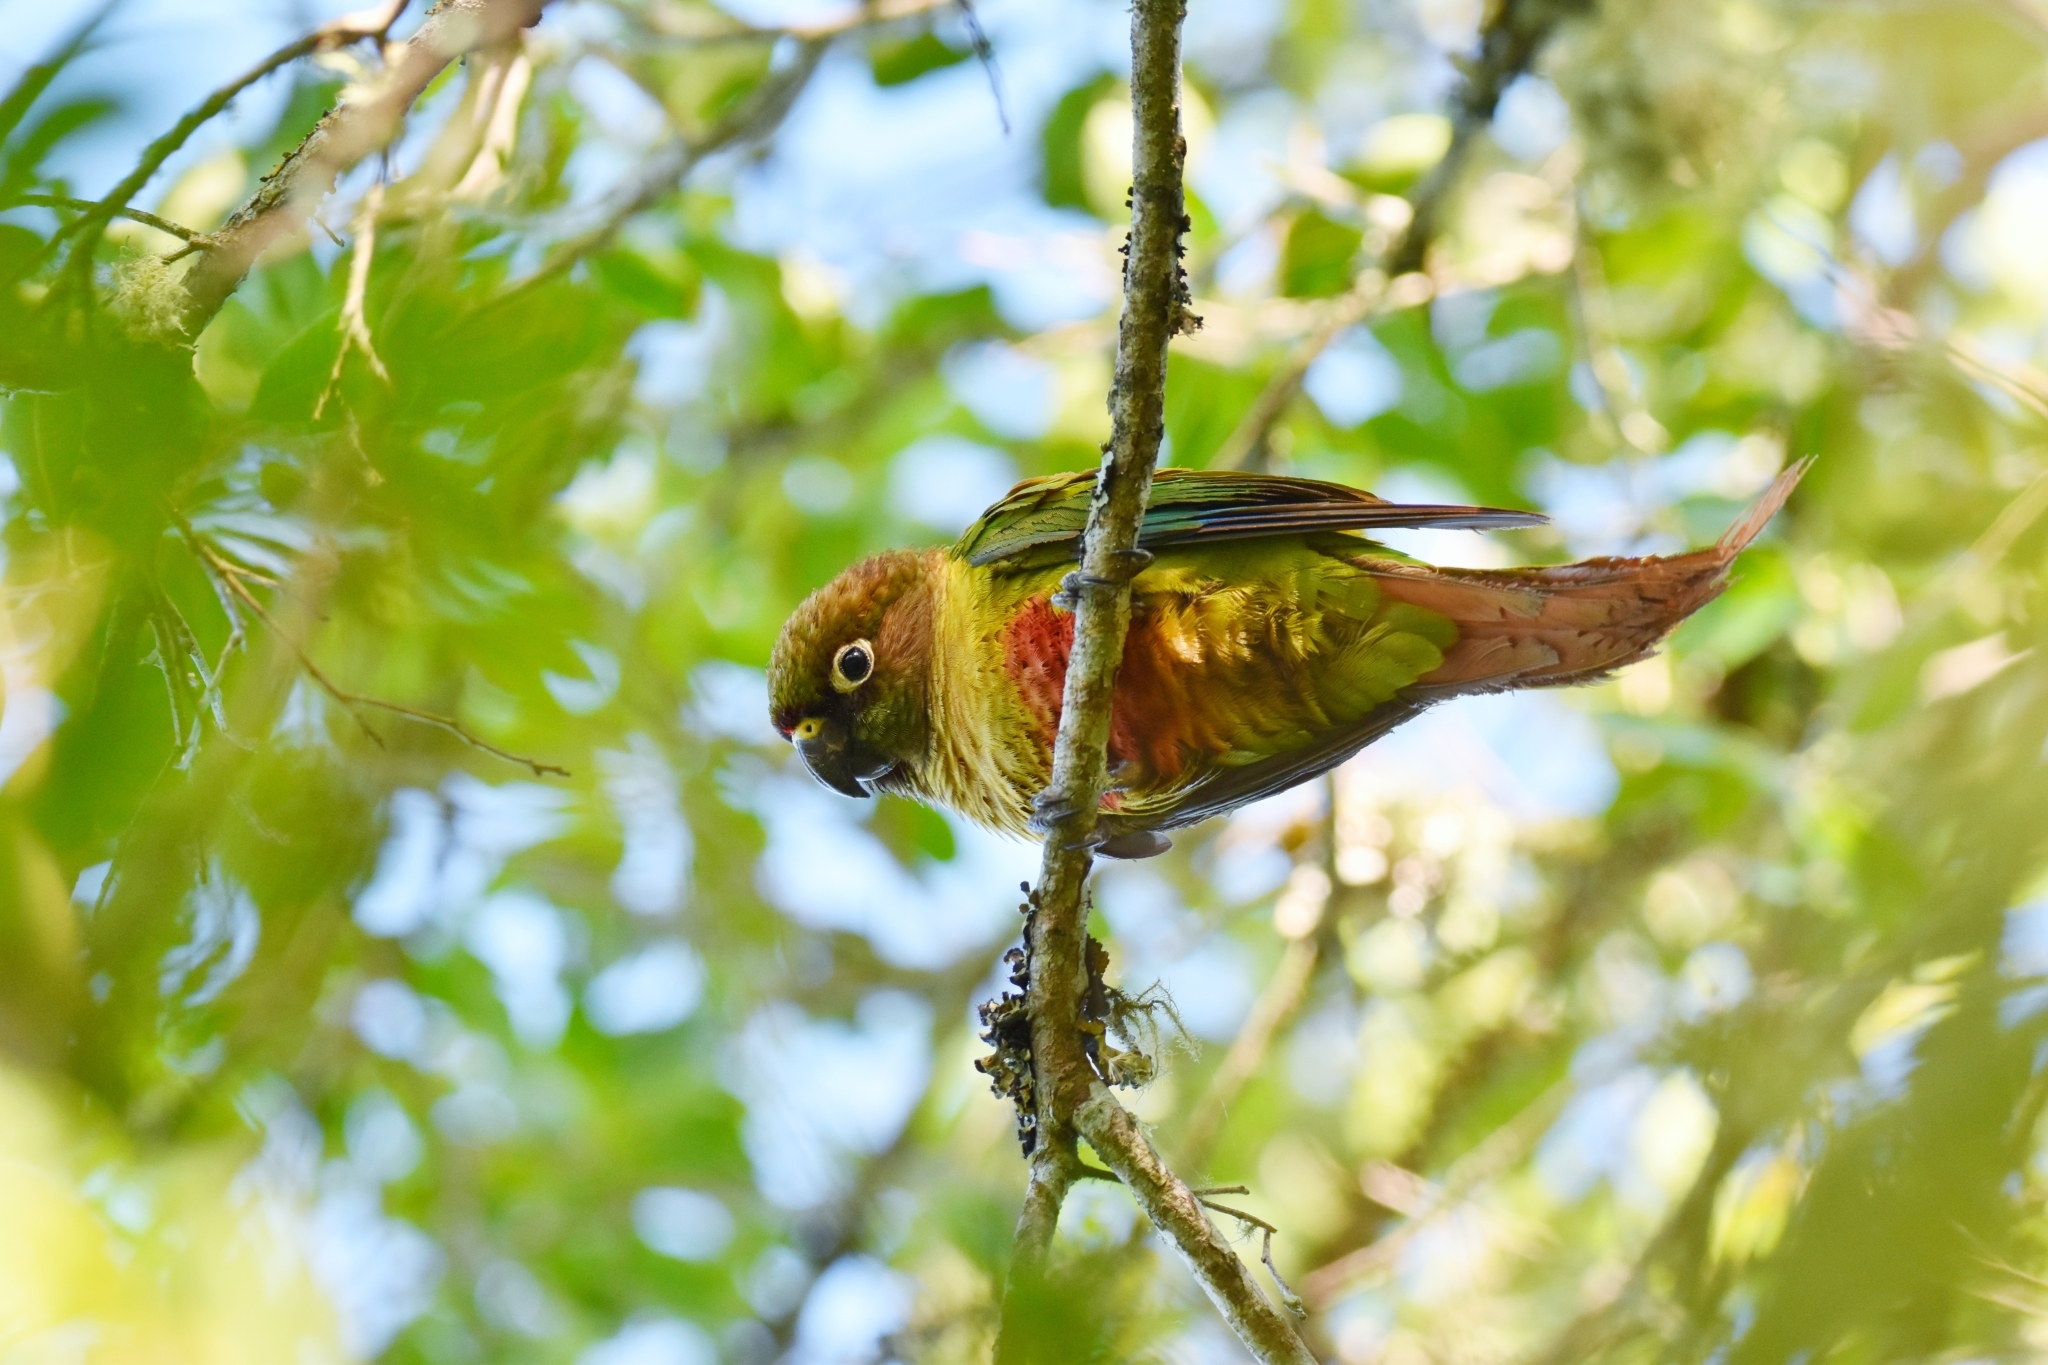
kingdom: Animalia
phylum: Chordata
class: Aves
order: Psittaciformes
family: Psittacidae
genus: Pyrrhura
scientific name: Pyrrhura frontalis
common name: Maroon-bellied parakeet
